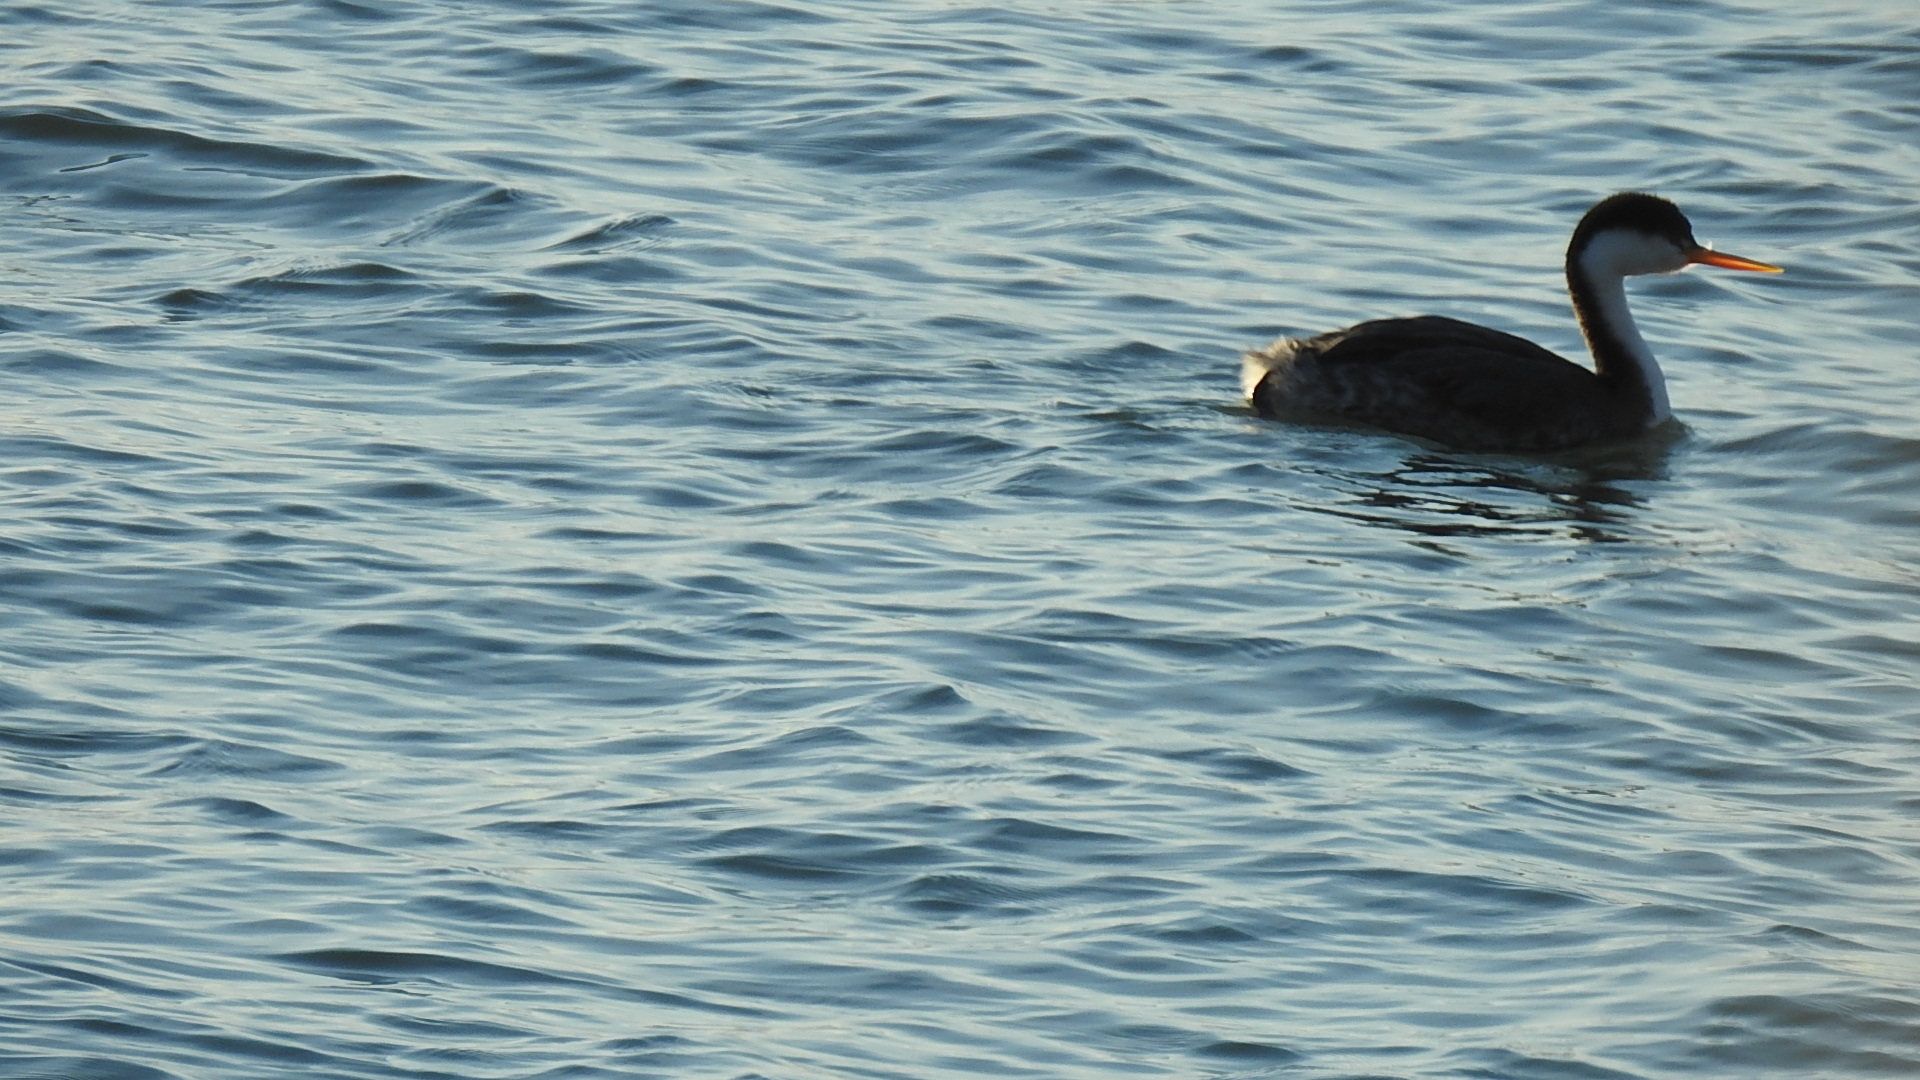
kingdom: Animalia
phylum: Chordata
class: Aves
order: Podicipediformes
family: Podicipedidae
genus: Aechmophorus
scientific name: Aechmophorus clarkii
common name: Clark's grebe
